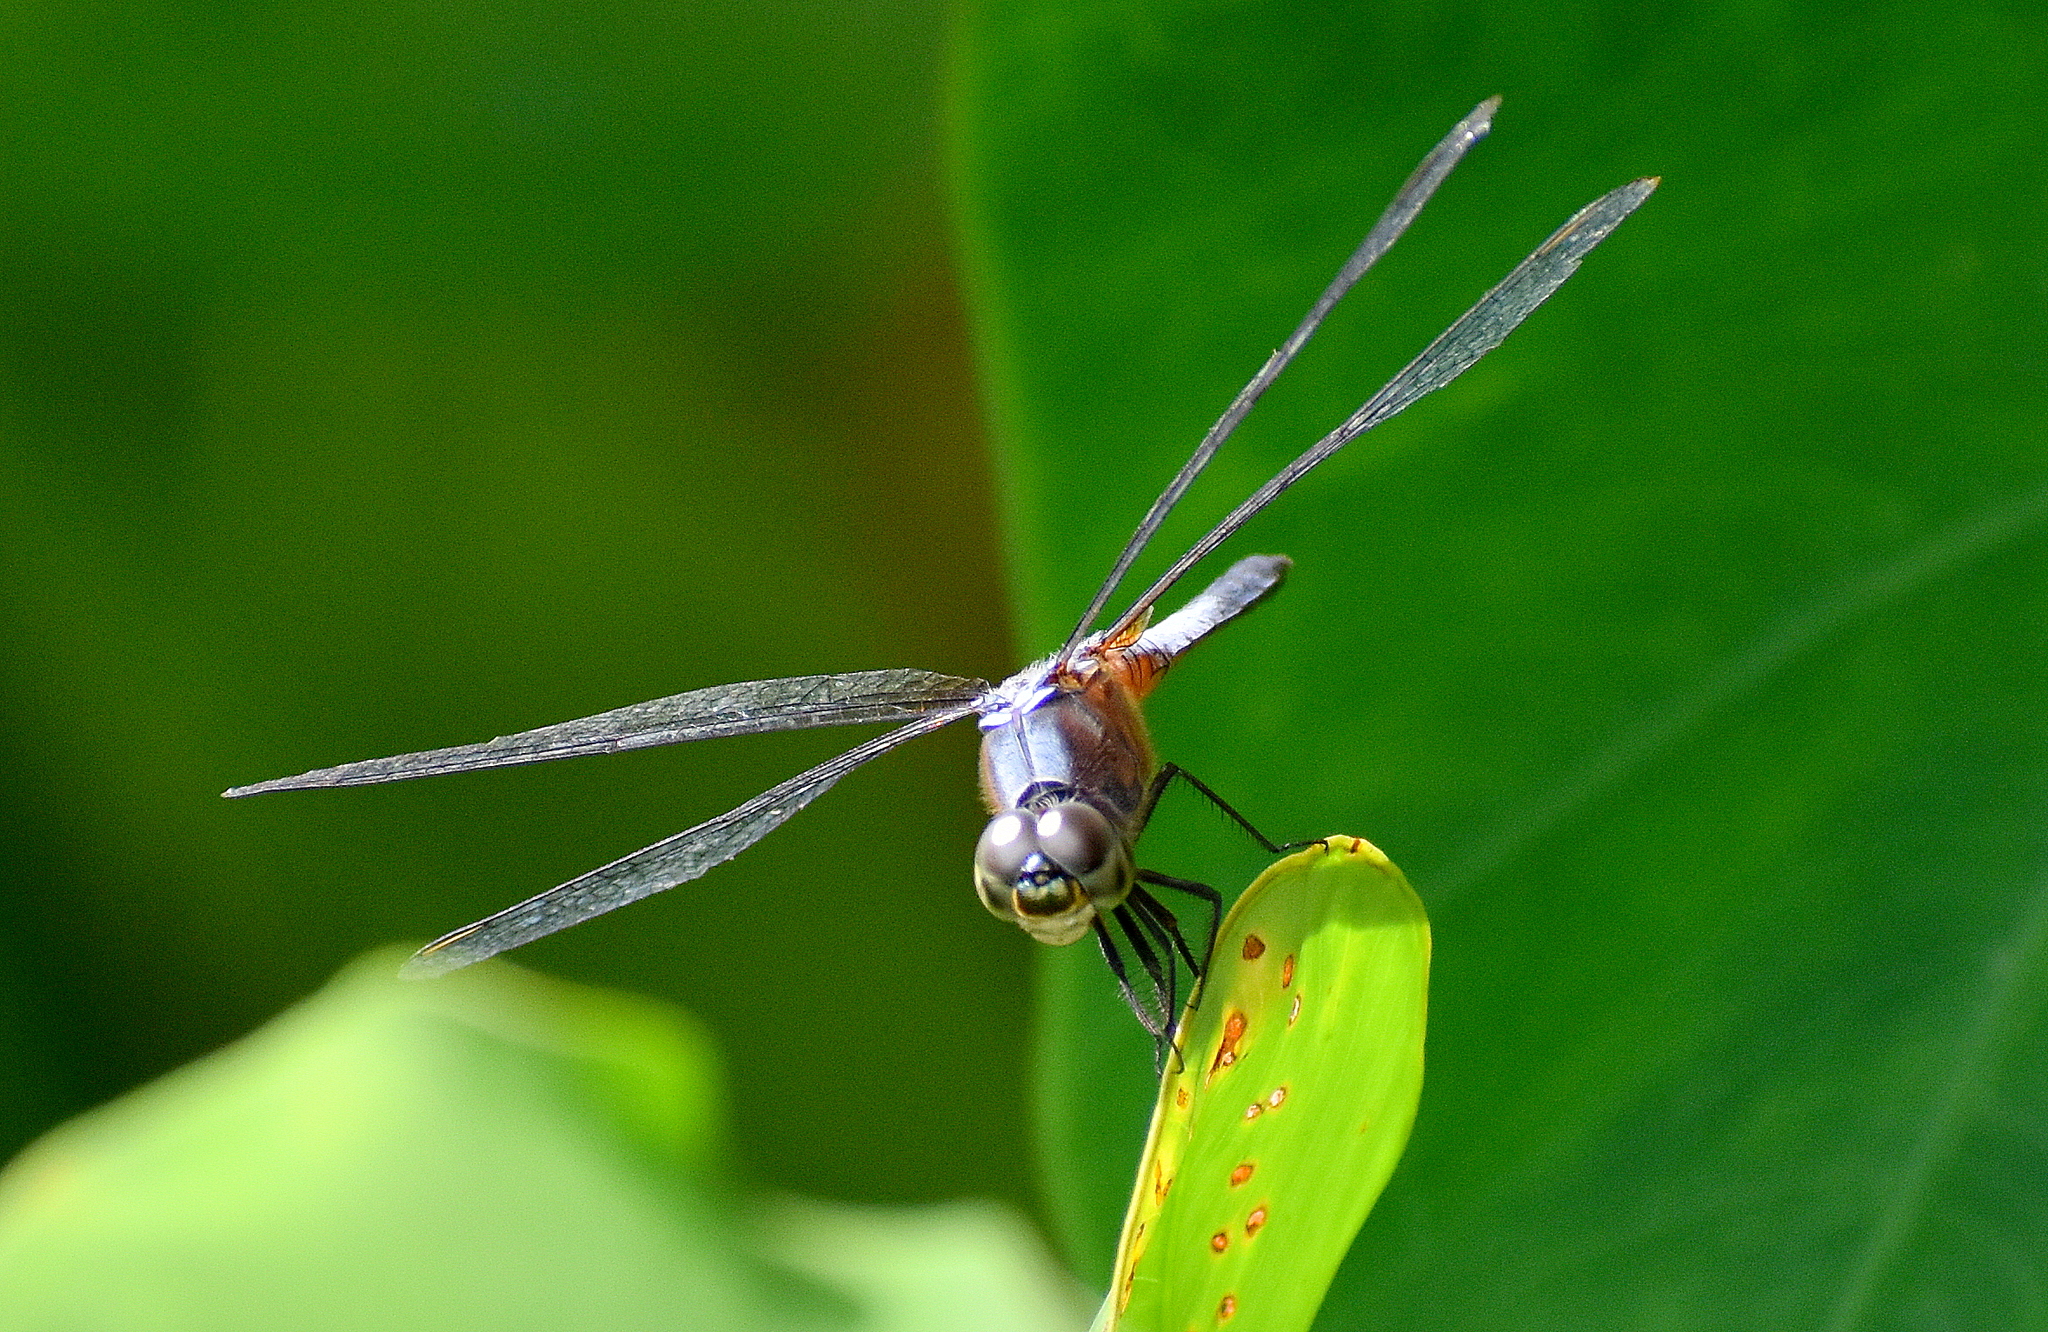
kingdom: Animalia
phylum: Arthropoda
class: Insecta
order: Odonata
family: Libellulidae
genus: Brachydiplax
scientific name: Brachydiplax chalybea
